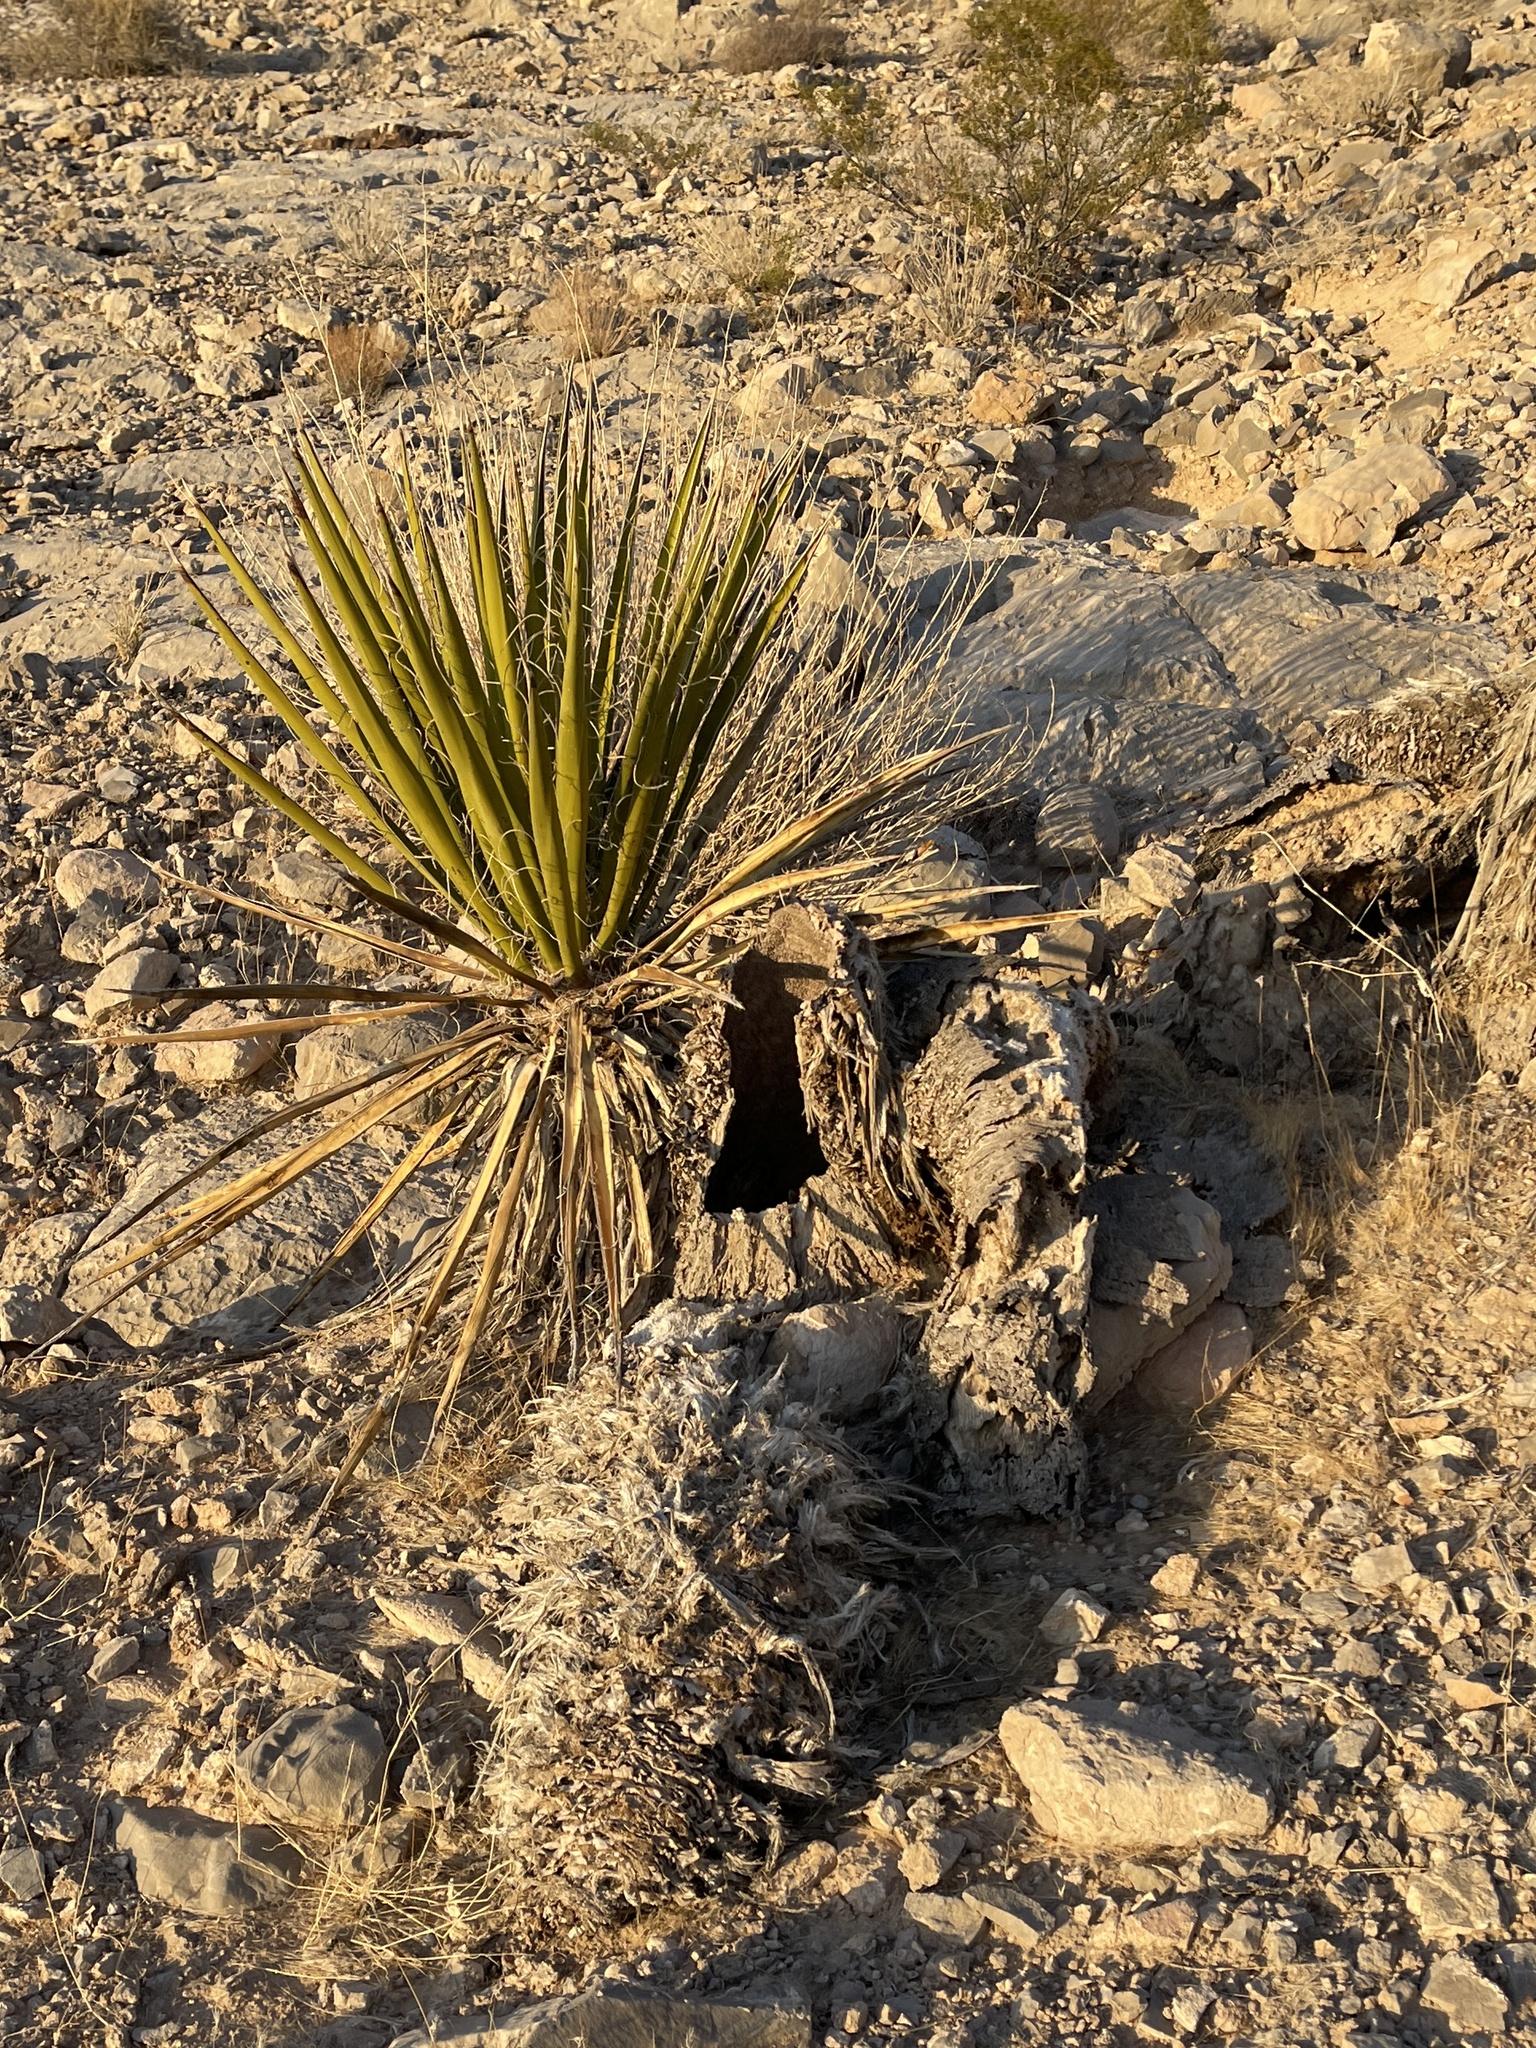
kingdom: Plantae
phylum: Tracheophyta
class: Liliopsida
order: Asparagales
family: Asparagaceae
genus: Yucca
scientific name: Yucca schidigera
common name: Mojave yucca
